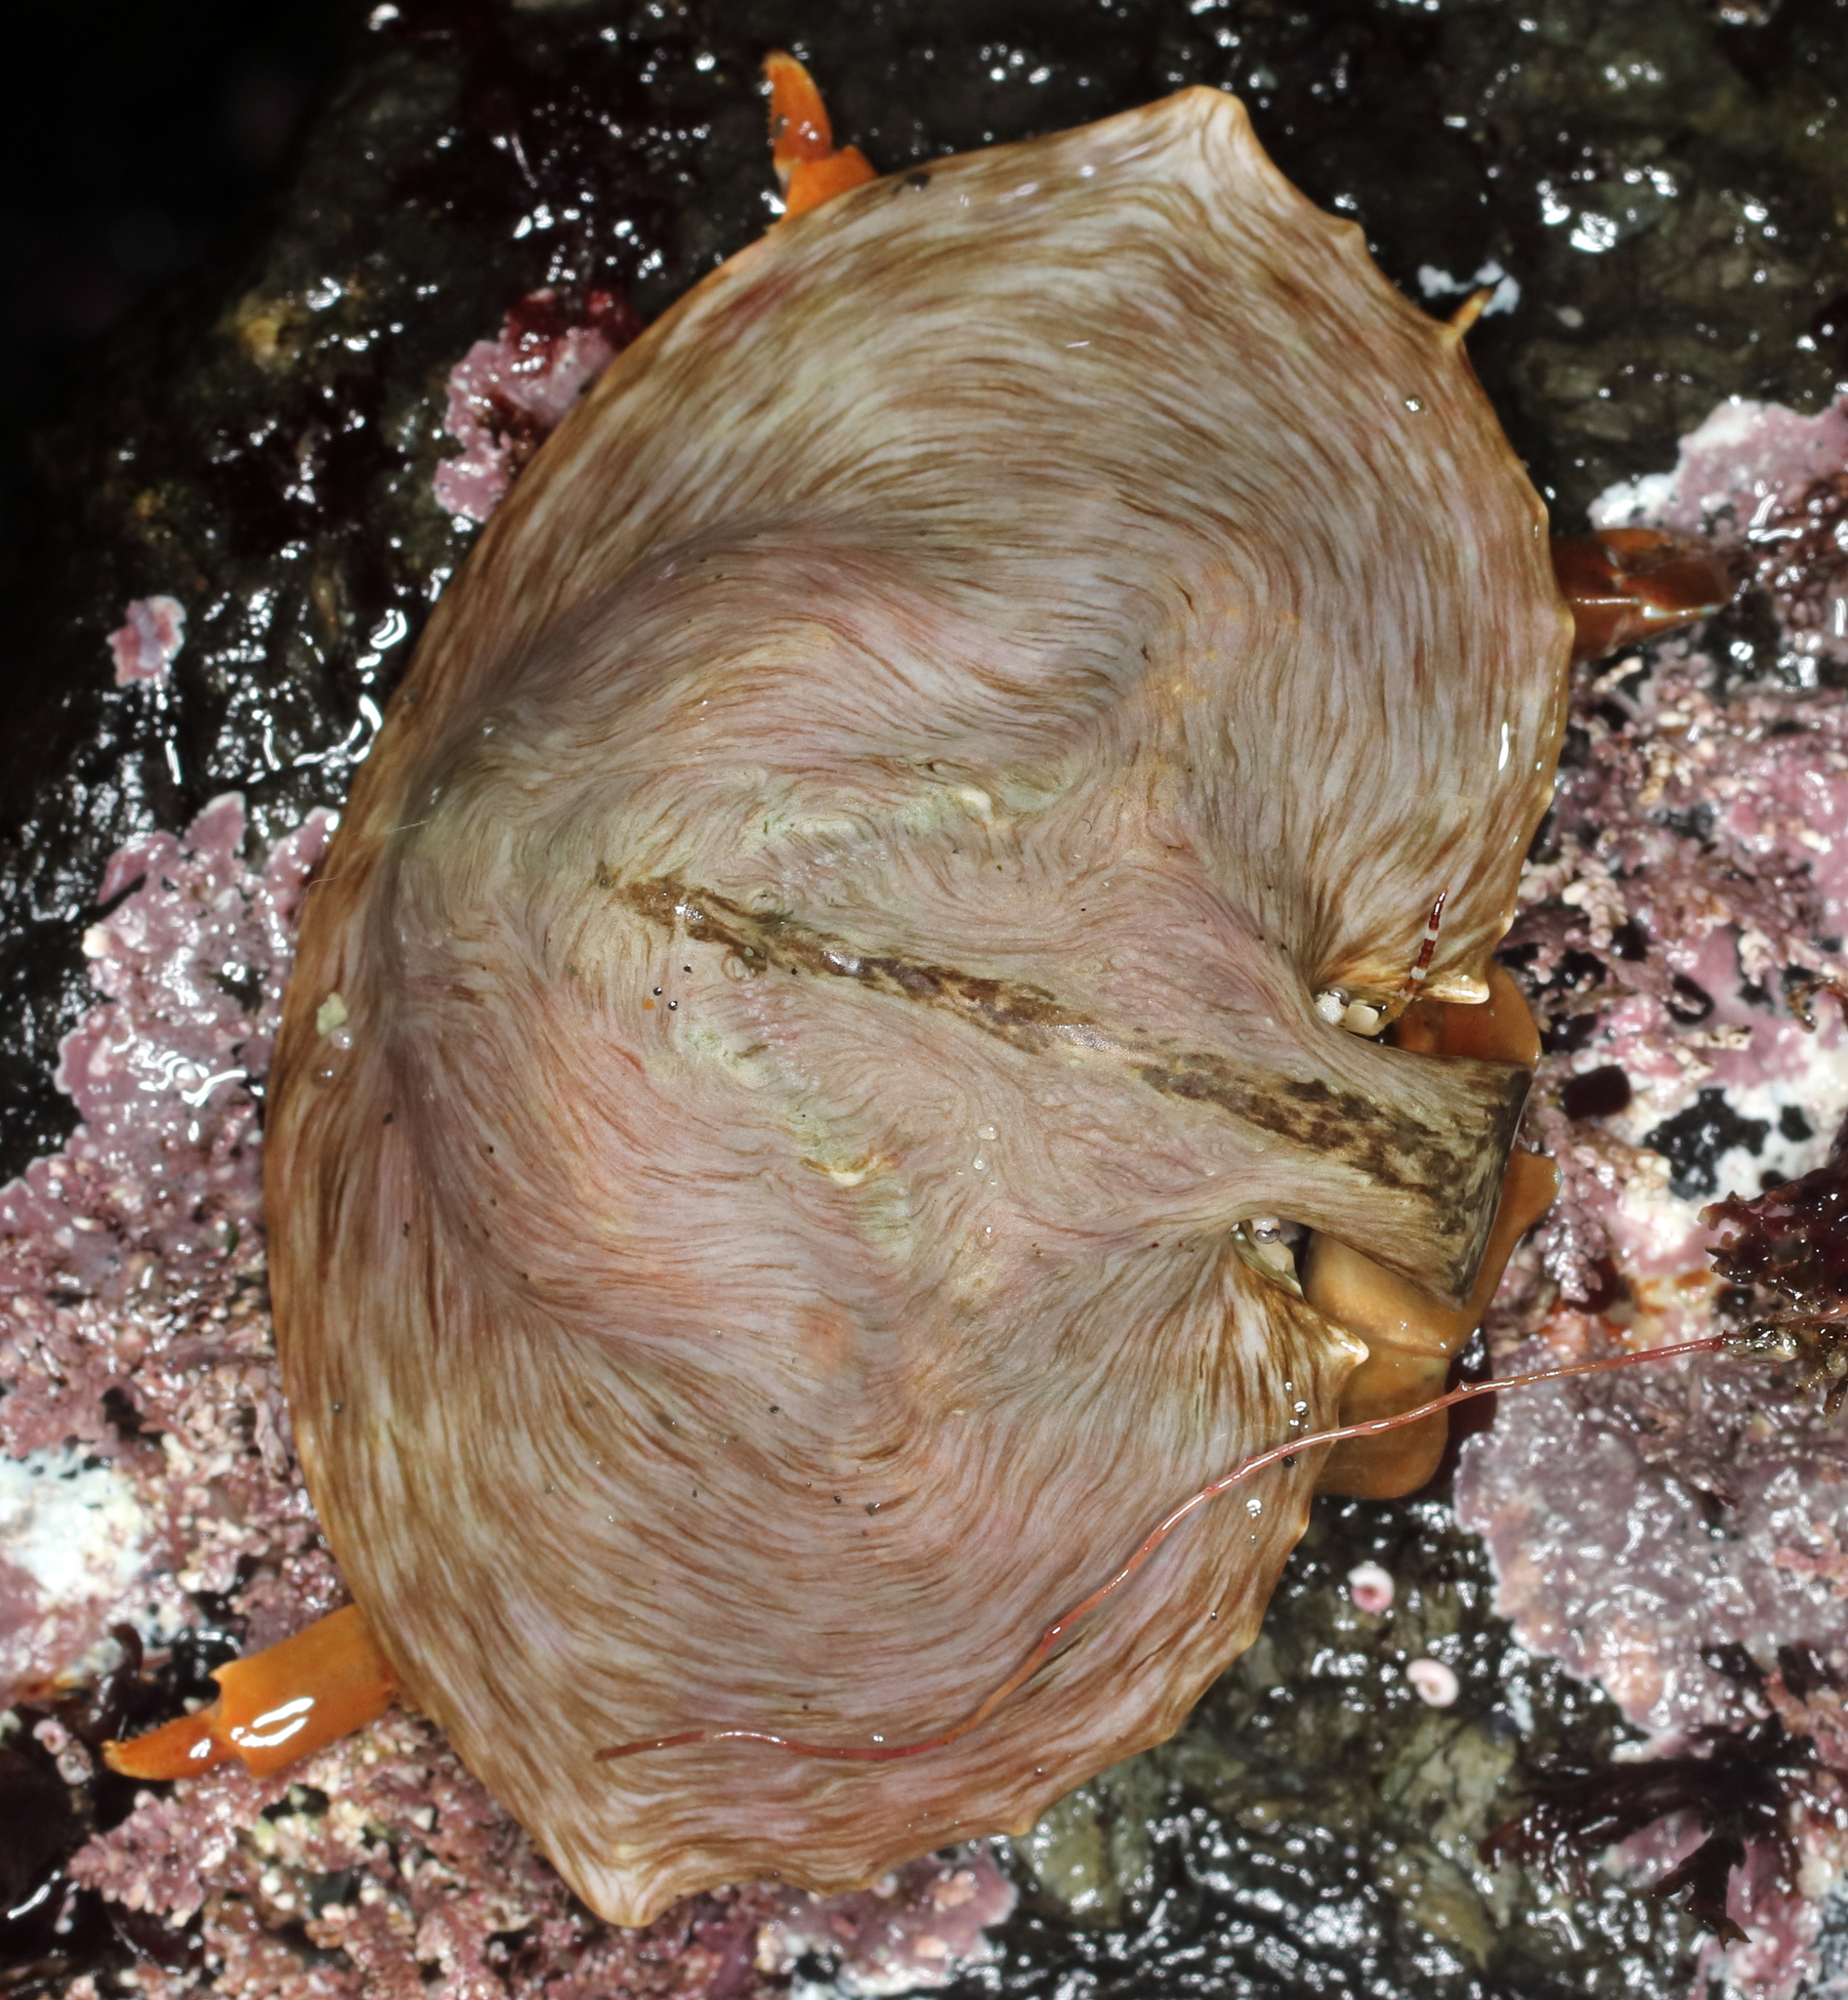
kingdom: Animalia
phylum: Arthropoda
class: Malacostraca
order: Decapoda
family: Lithodidae
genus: Cryptolithodes
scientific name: Cryptolithodes sitchensis
